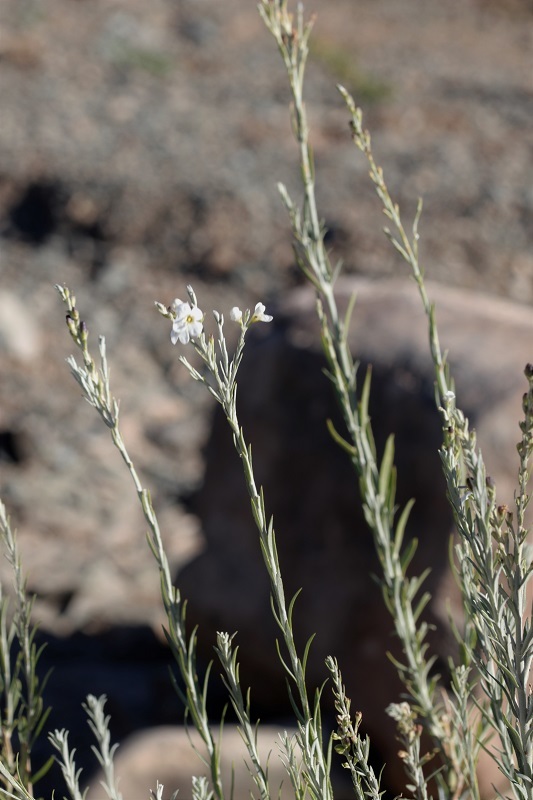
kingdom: Plantae
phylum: Tracheophyta
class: Magnoliopsida
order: Lamiales
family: Scrophulariaceae
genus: Buddleja
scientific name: Buddleja virgata
